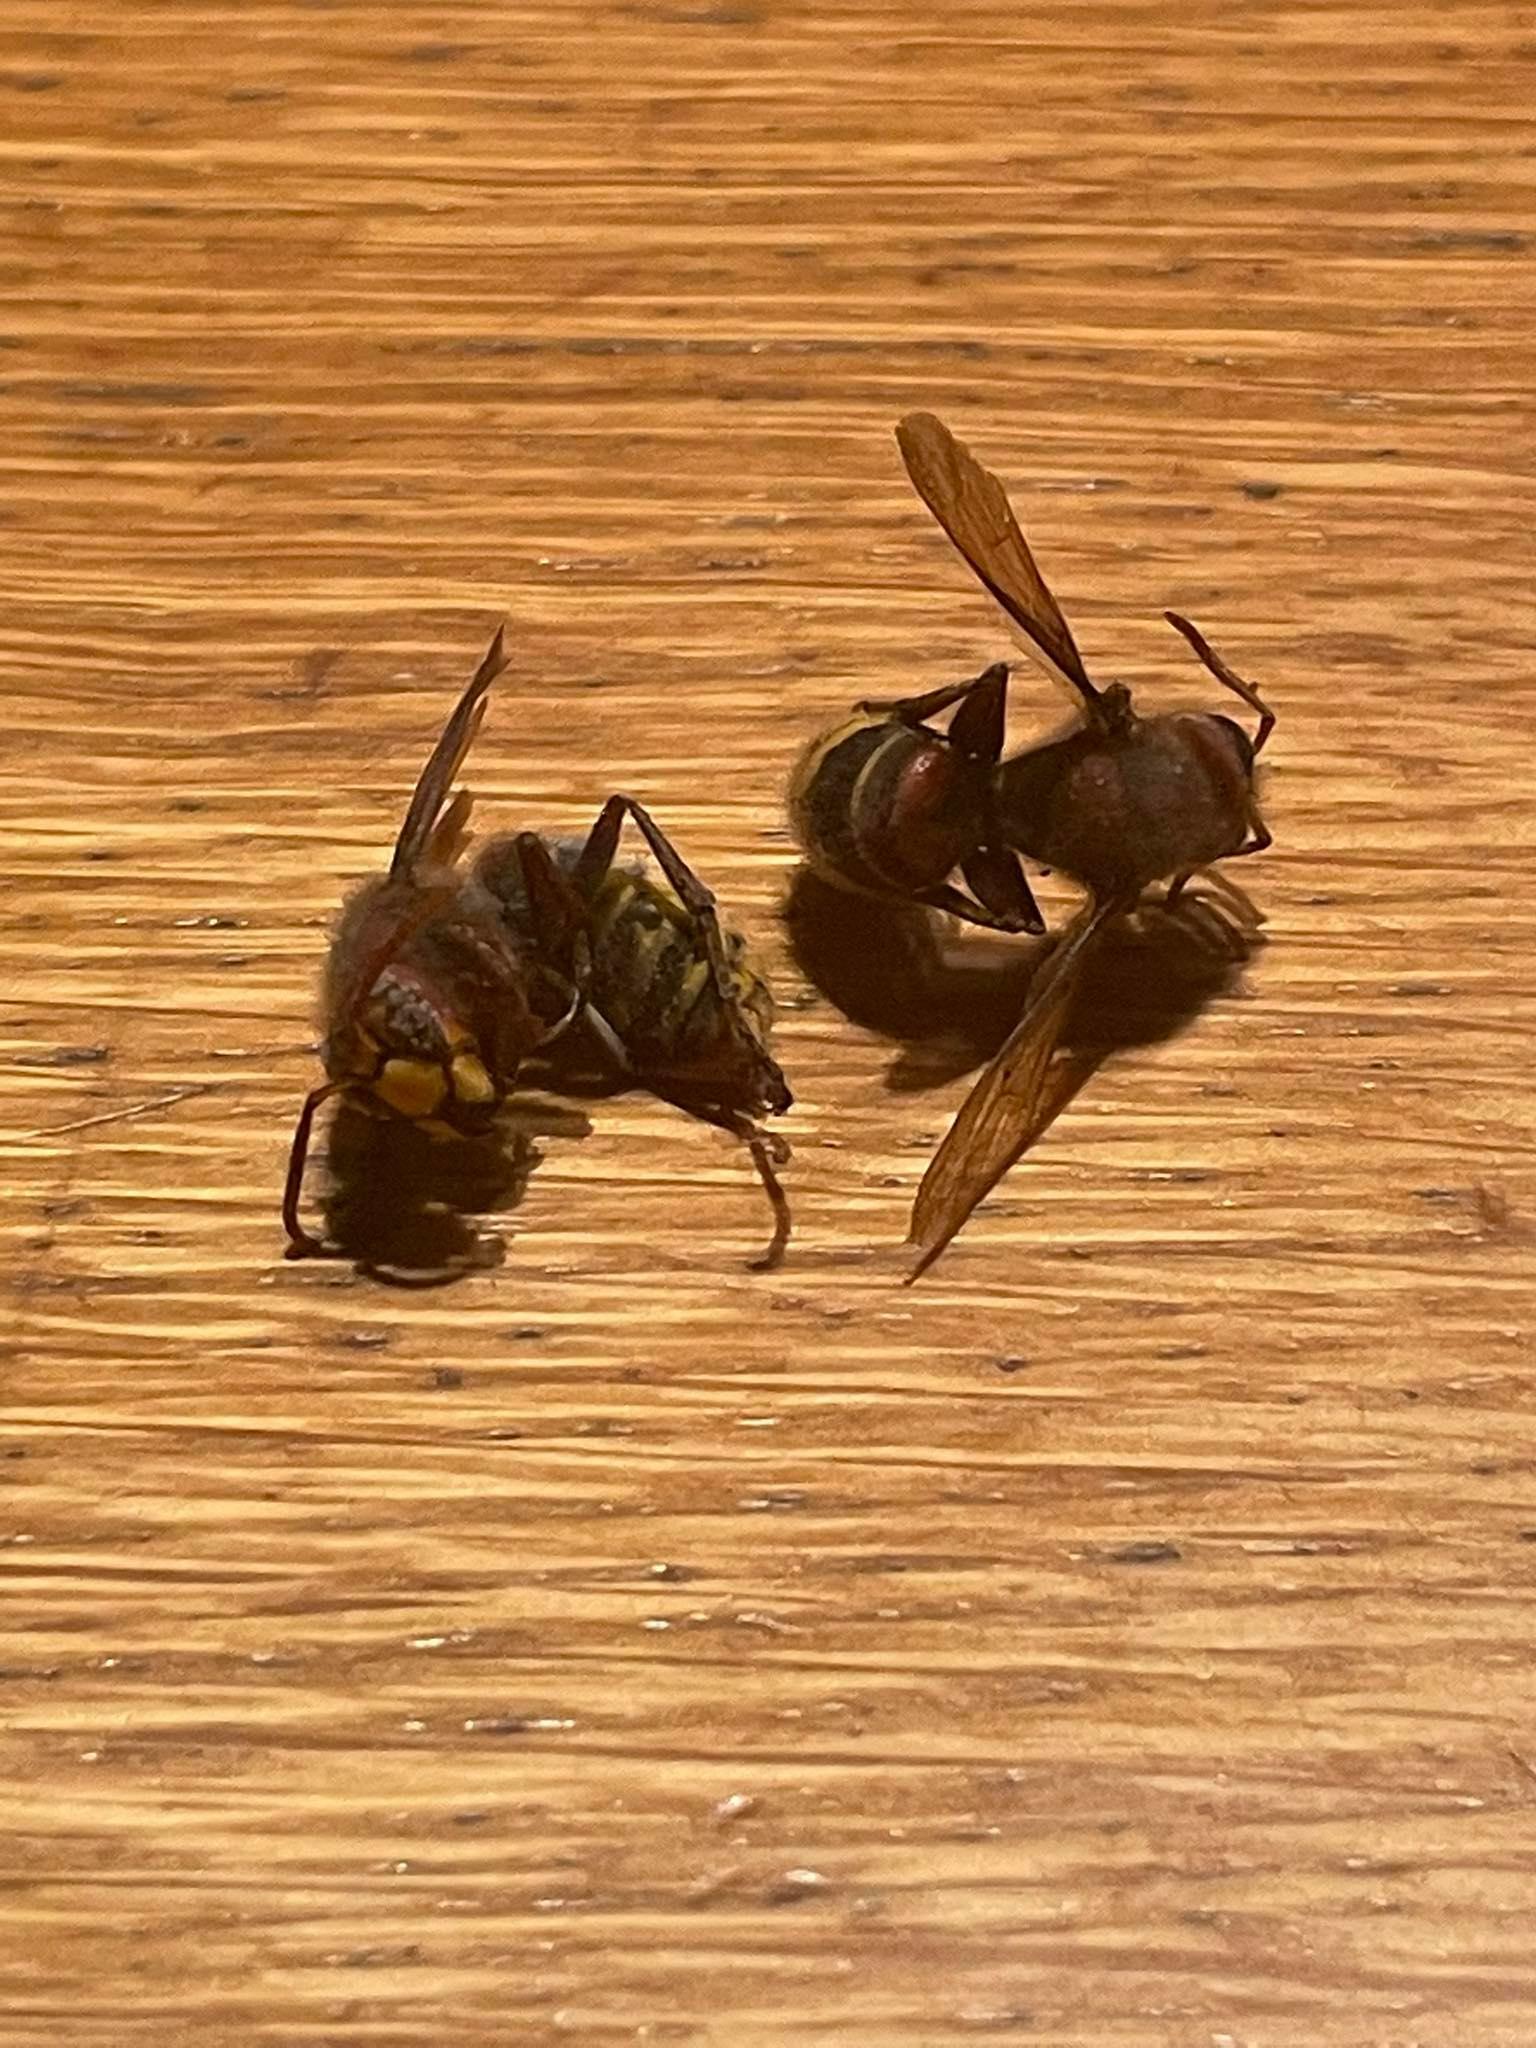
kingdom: Animalia
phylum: Arthropoda
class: Insecta
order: Hymenoptera
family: Vespidae
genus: Vespa
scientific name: Vespa crabro
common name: Hornet
